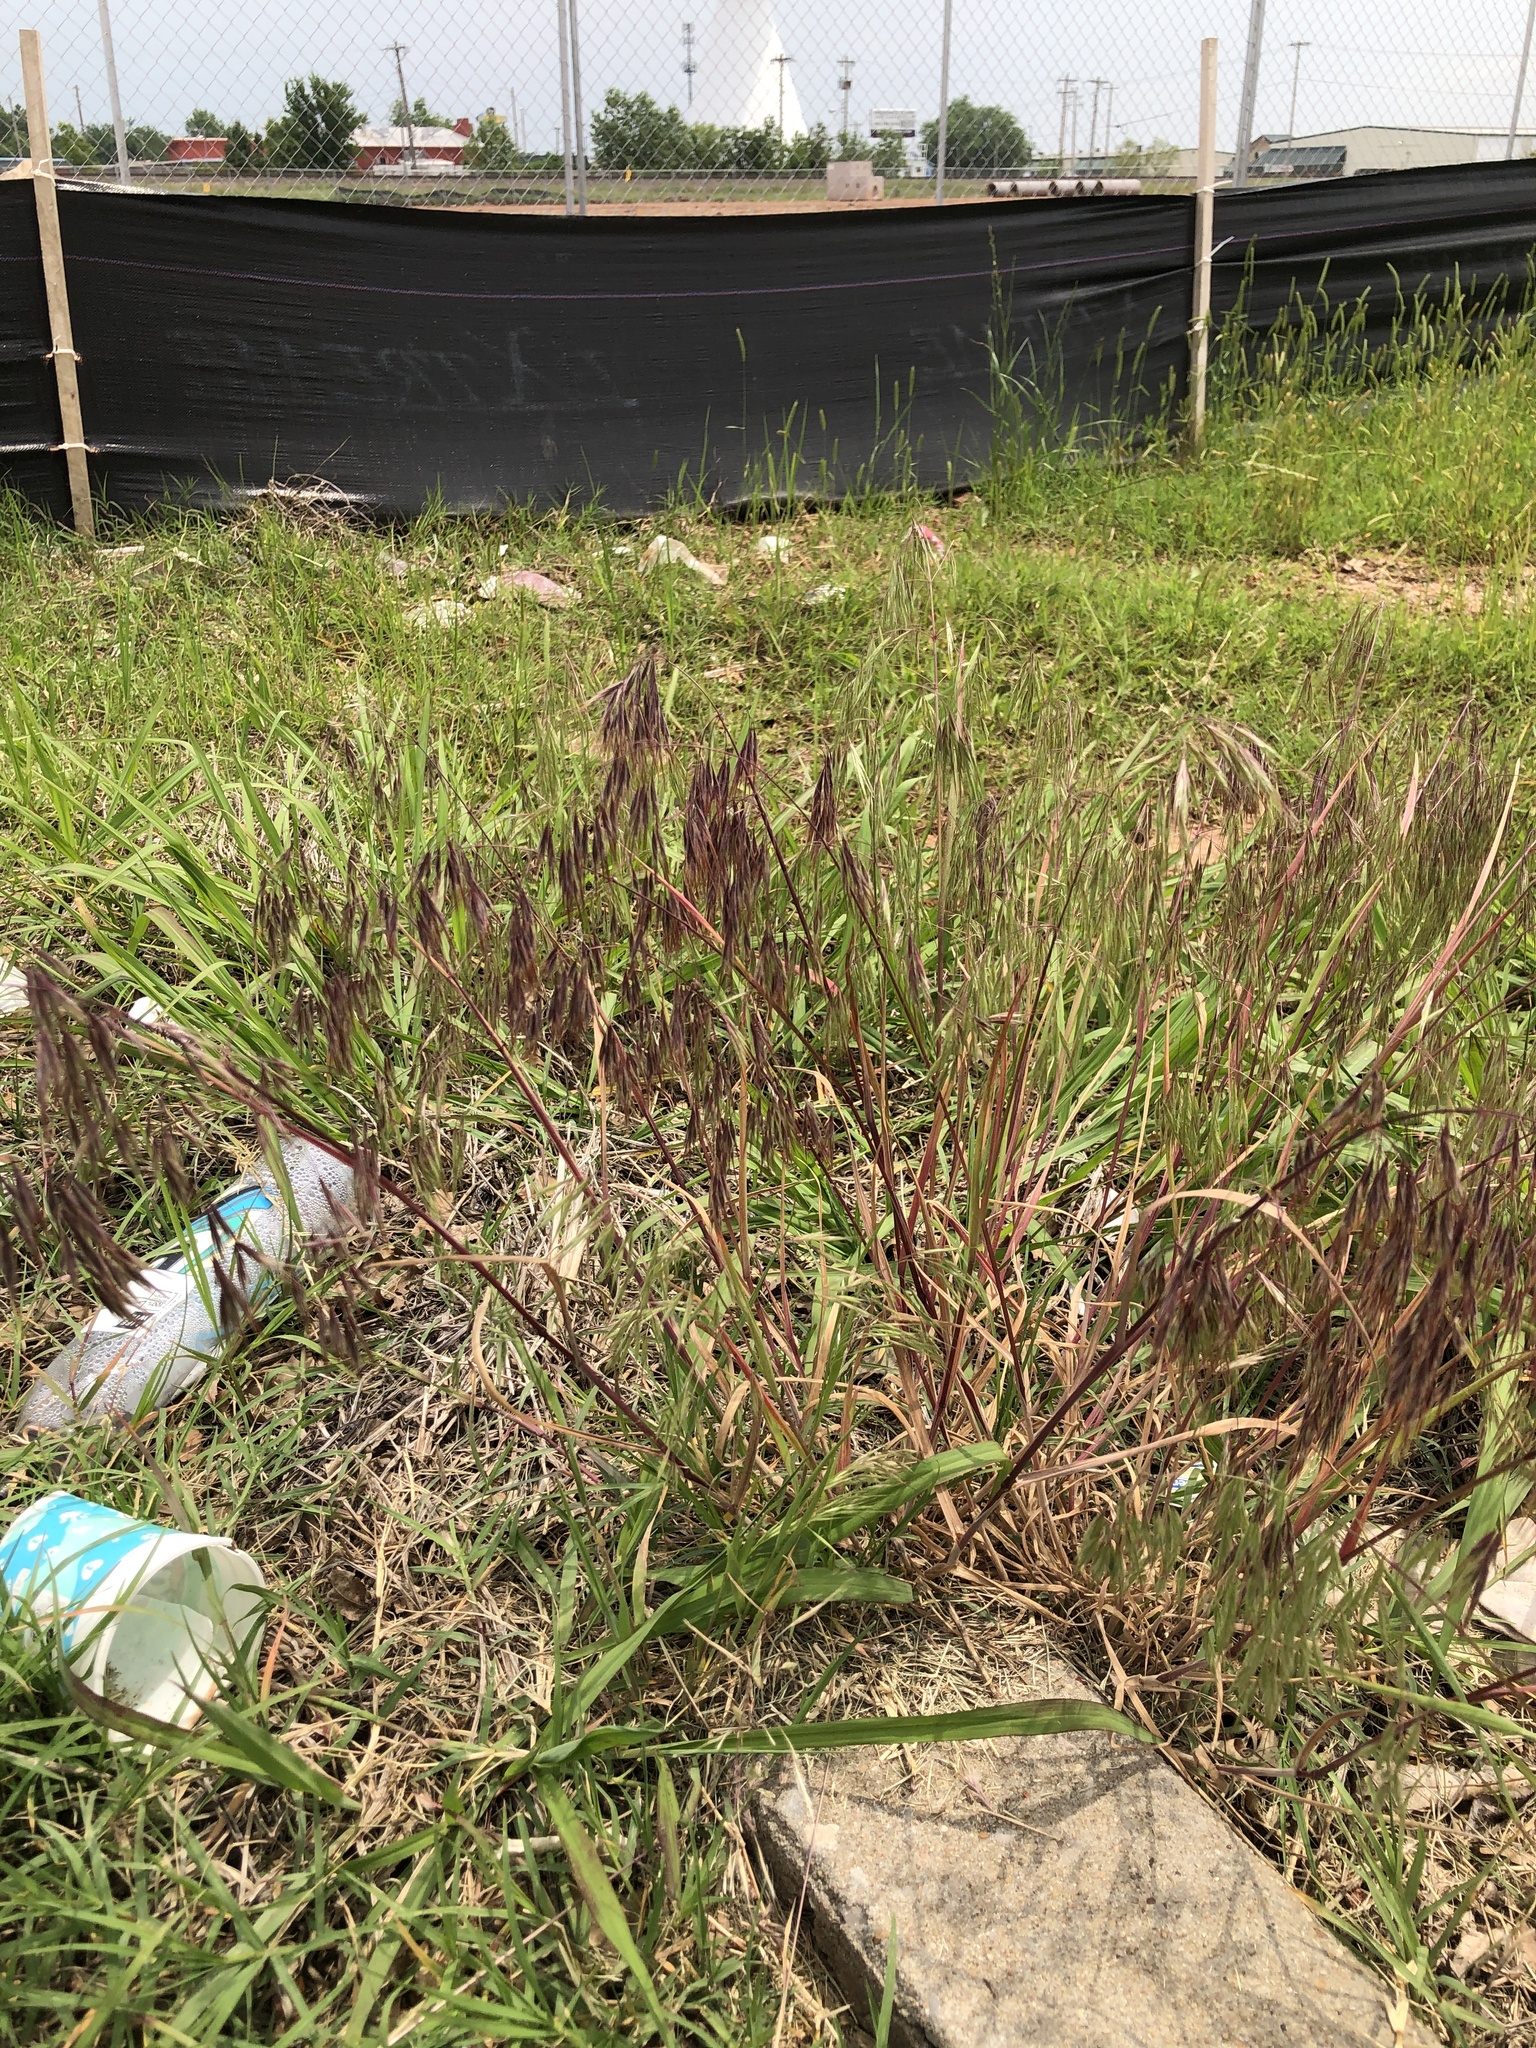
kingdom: Plantae
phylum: Tracheophyta
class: Liliopsida
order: Poales
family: Poaceae
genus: Bromus
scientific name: Bromus tectorum
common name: Cheatgrass
